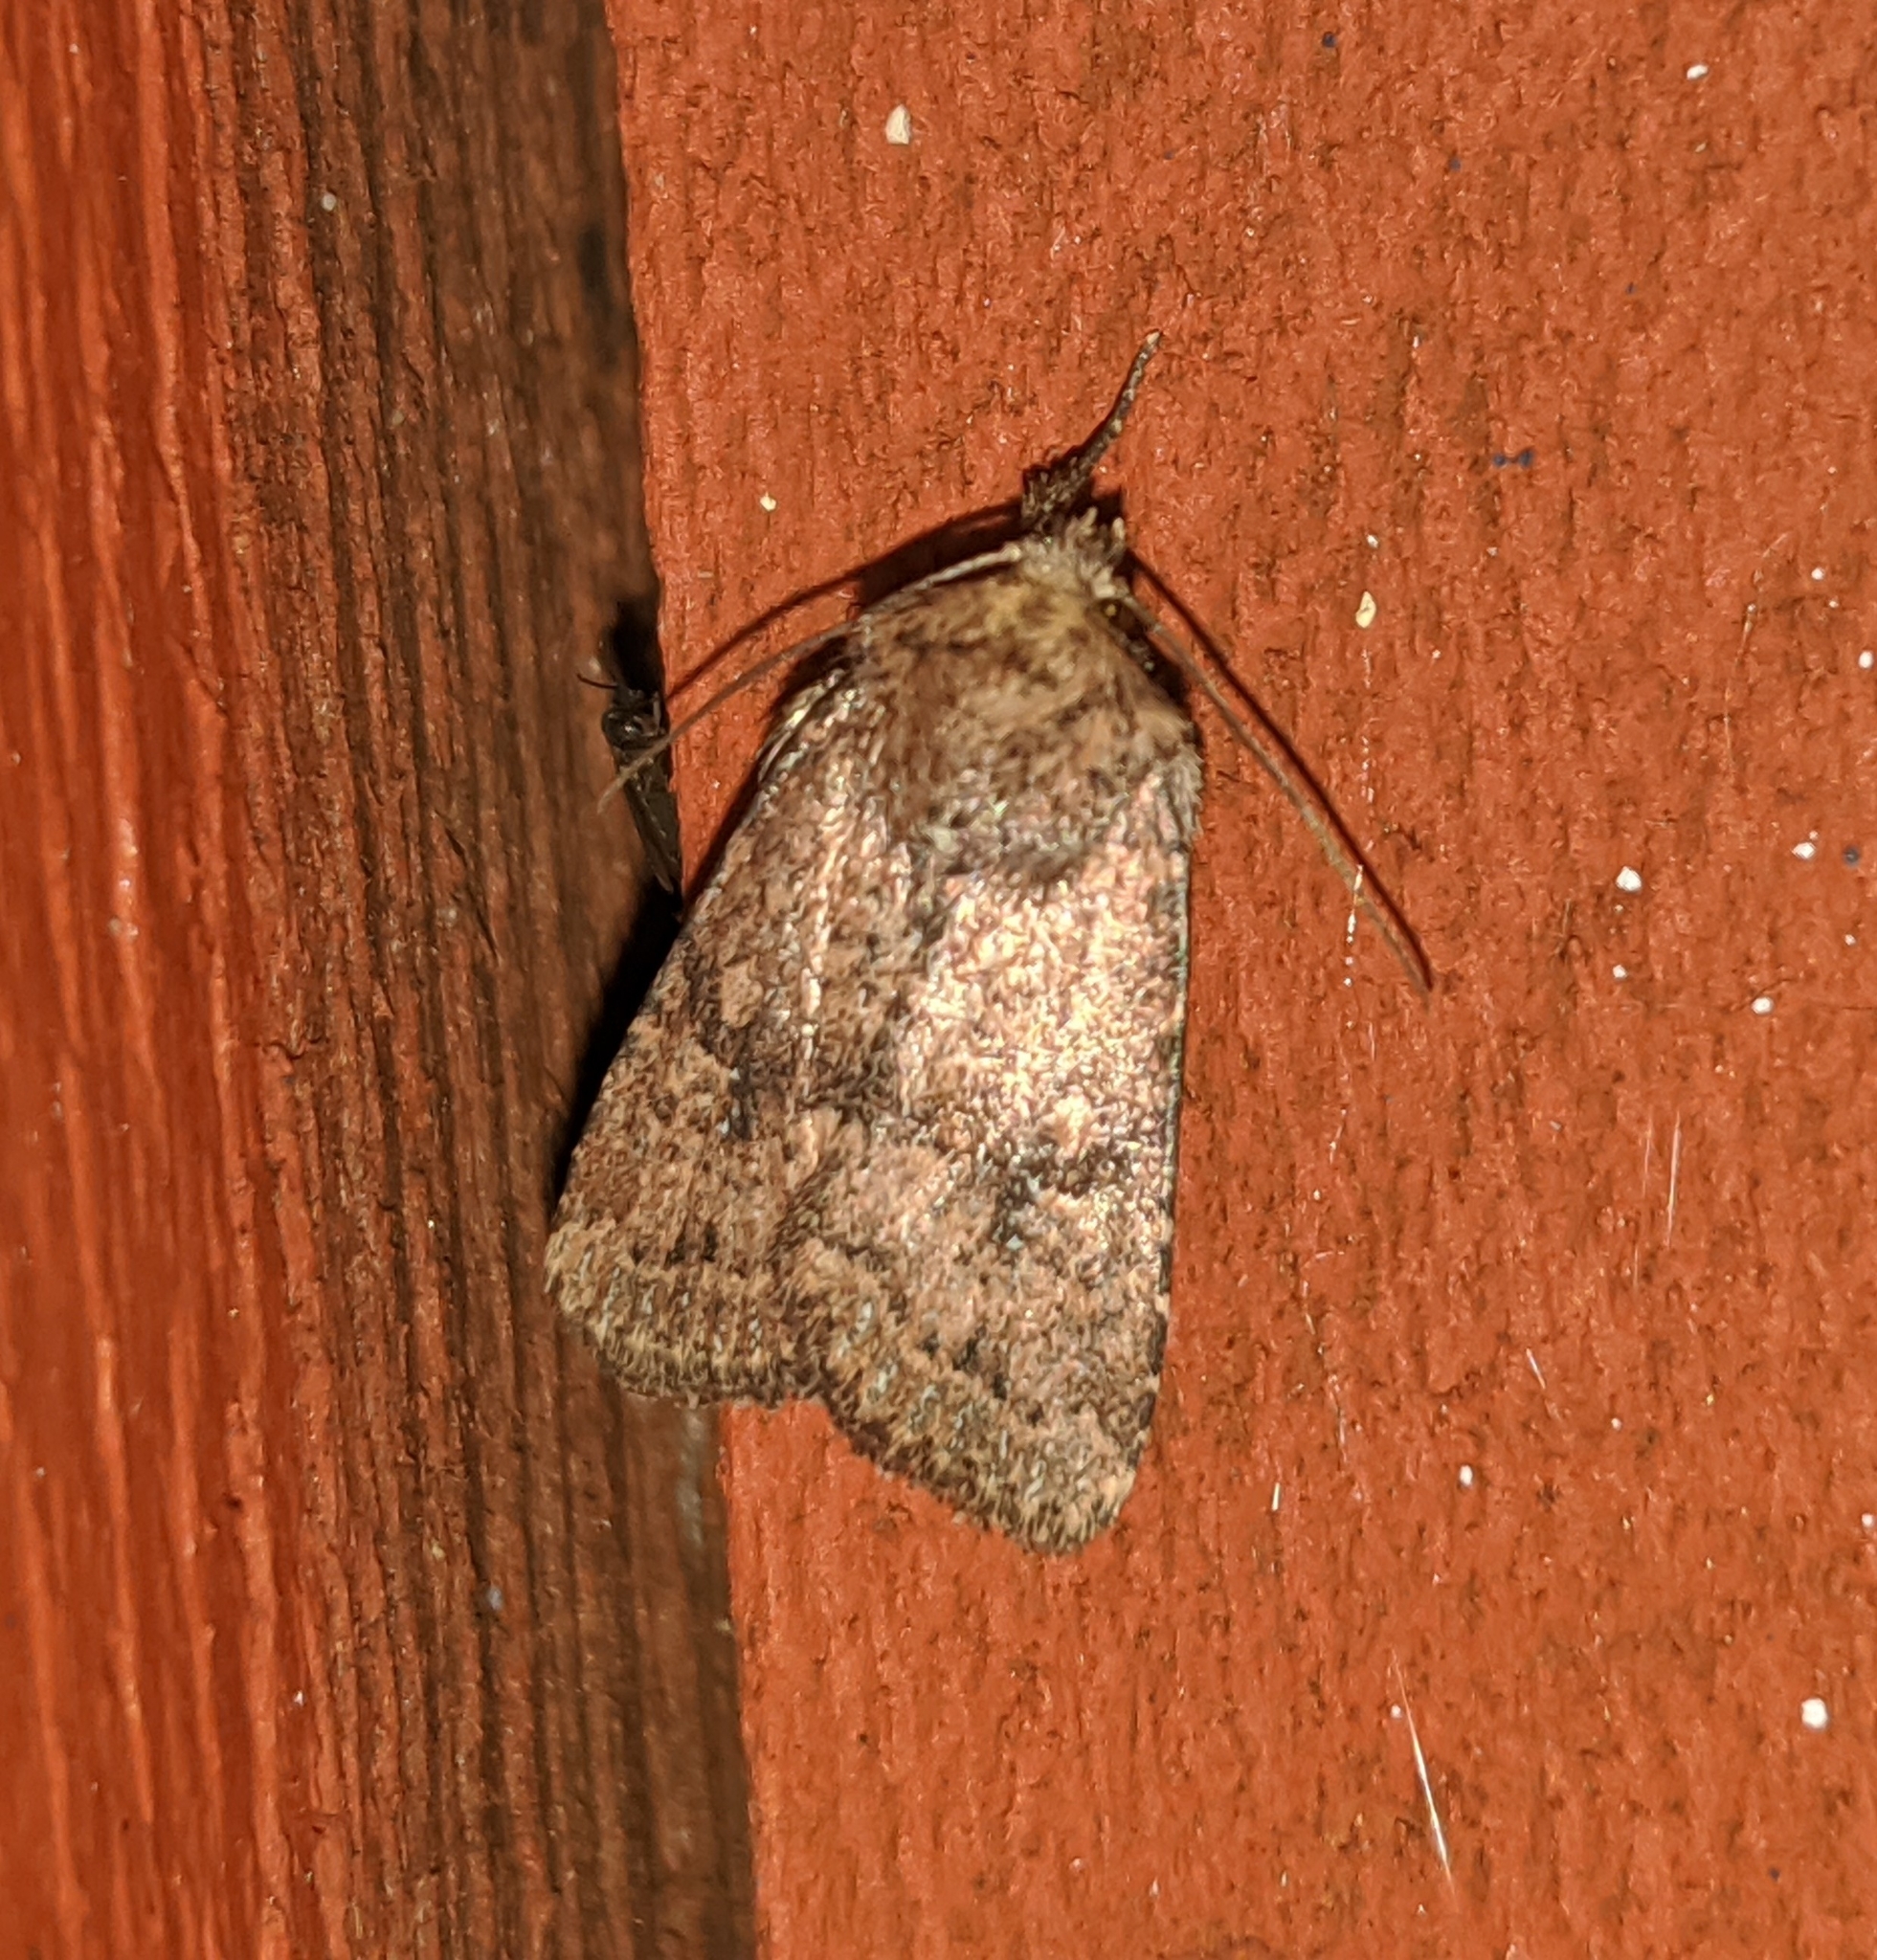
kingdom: Animalia
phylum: Arthropoda
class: Insecta
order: Lepidoptera
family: Noctuidae
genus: Homorthodes
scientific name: Homorthodes hanhami
